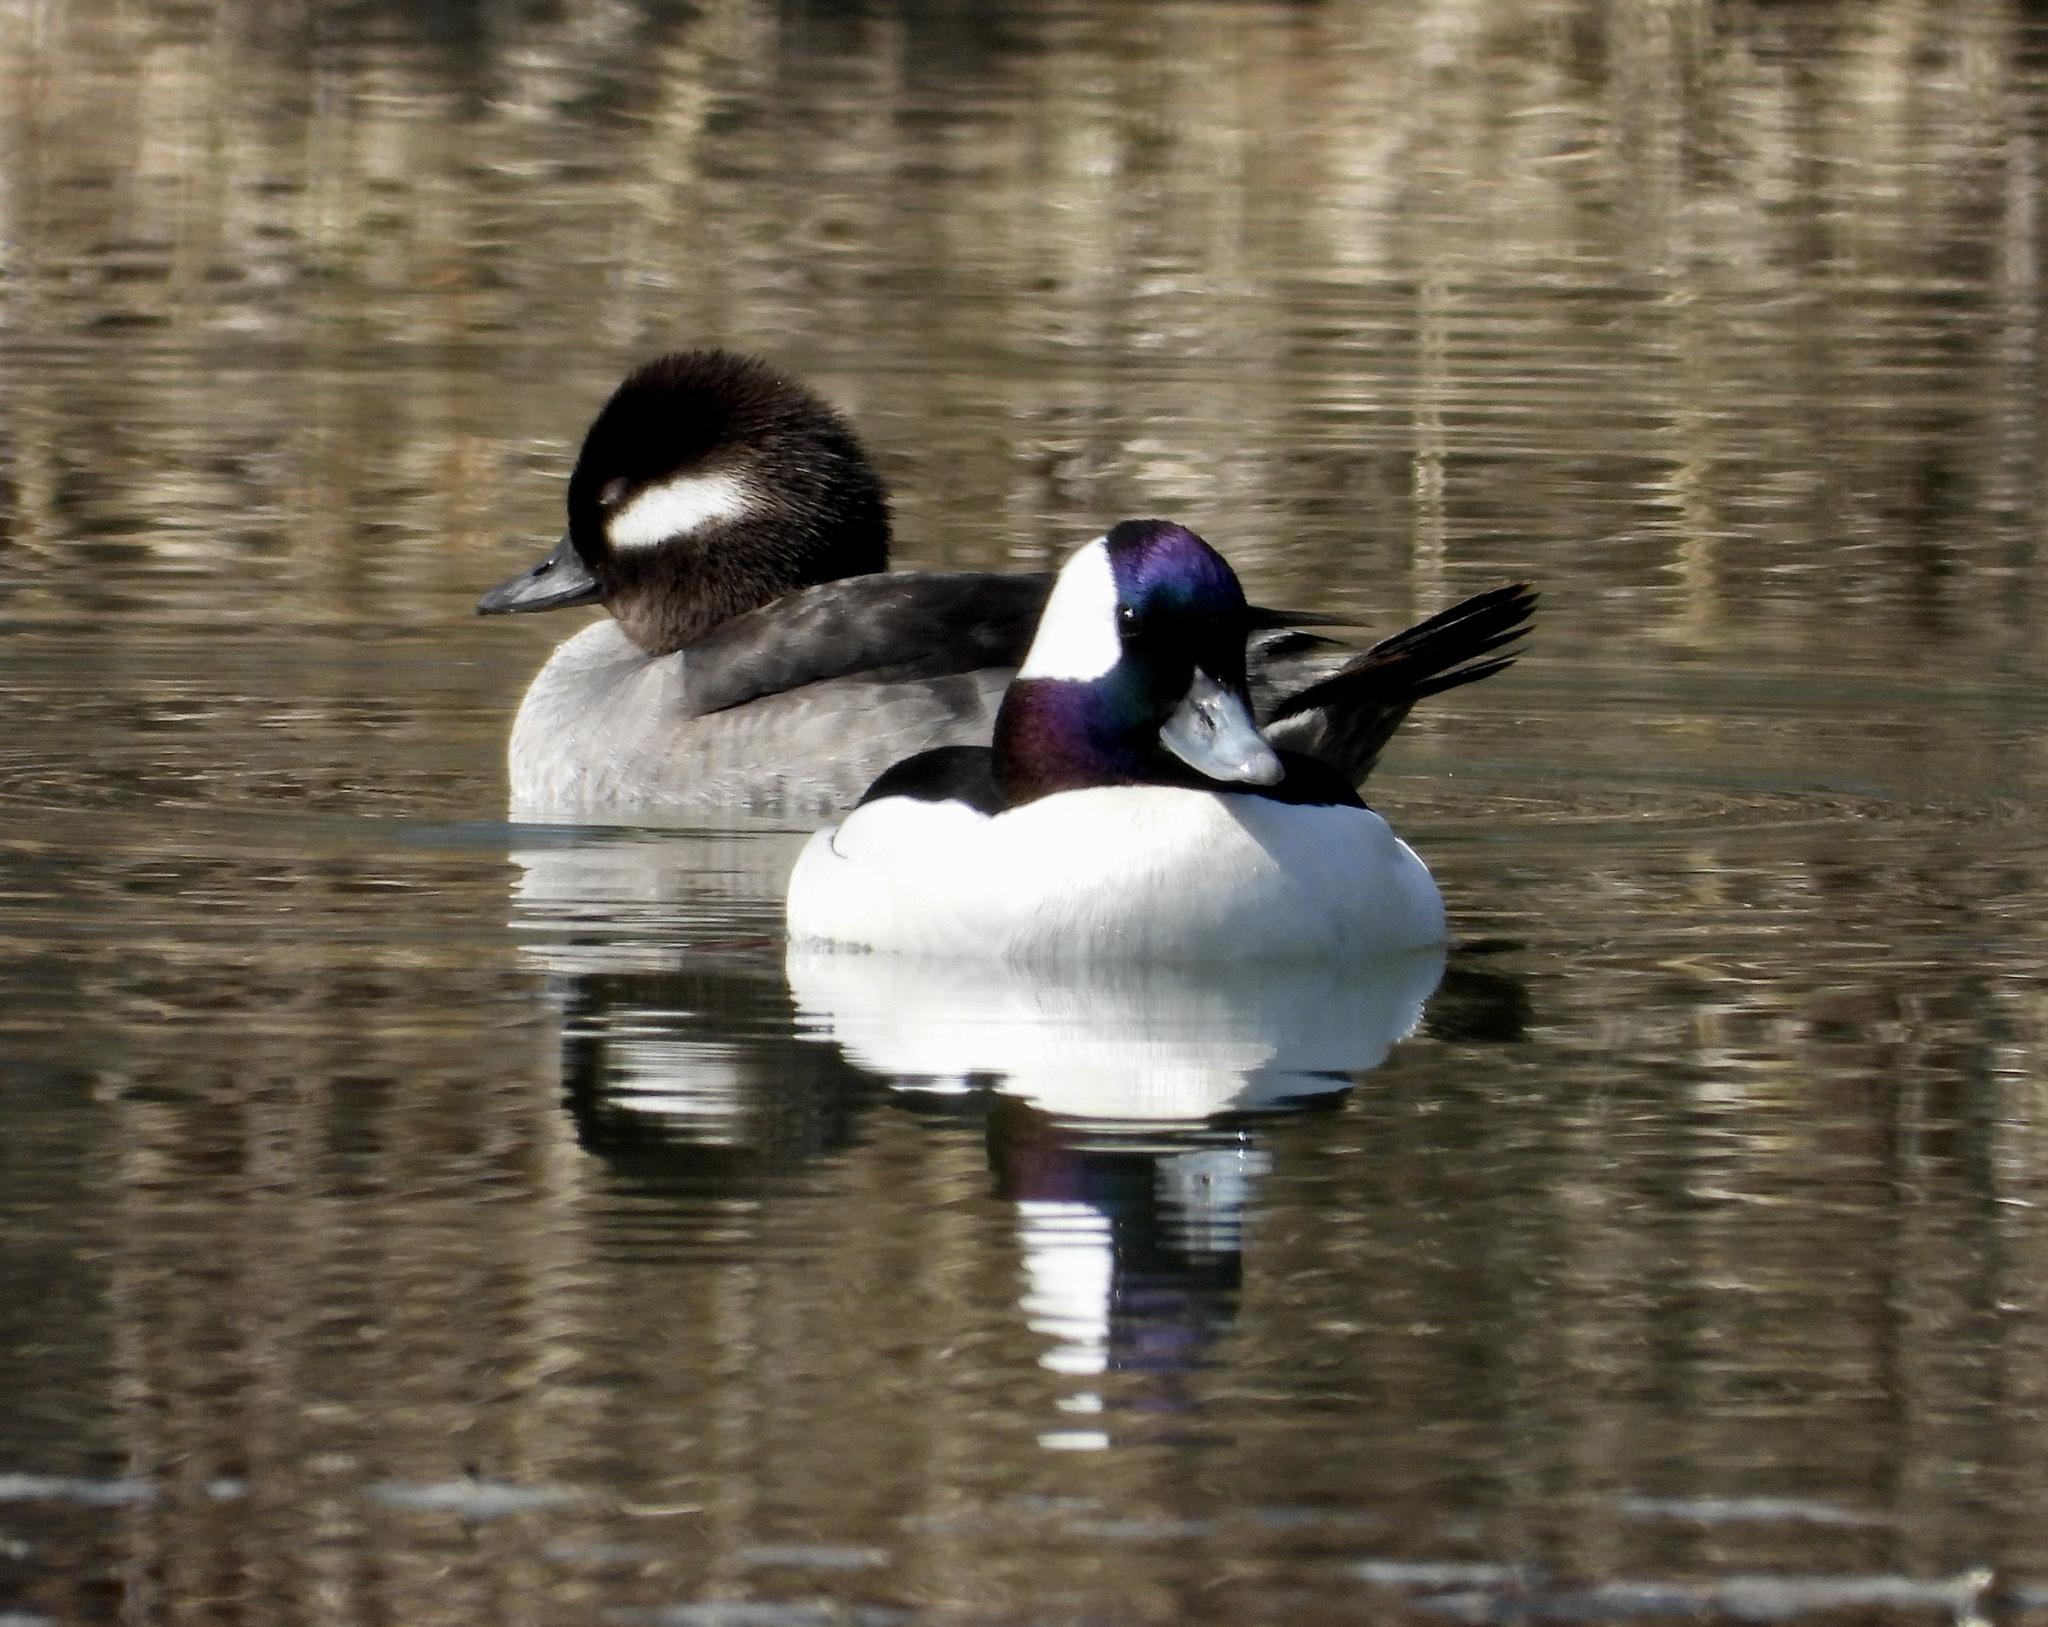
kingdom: Animalia
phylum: Chordata
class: Aves
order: Anseriformes
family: Anatidae
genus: Bucephala
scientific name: Bucephala albeola
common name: Bufflehead
